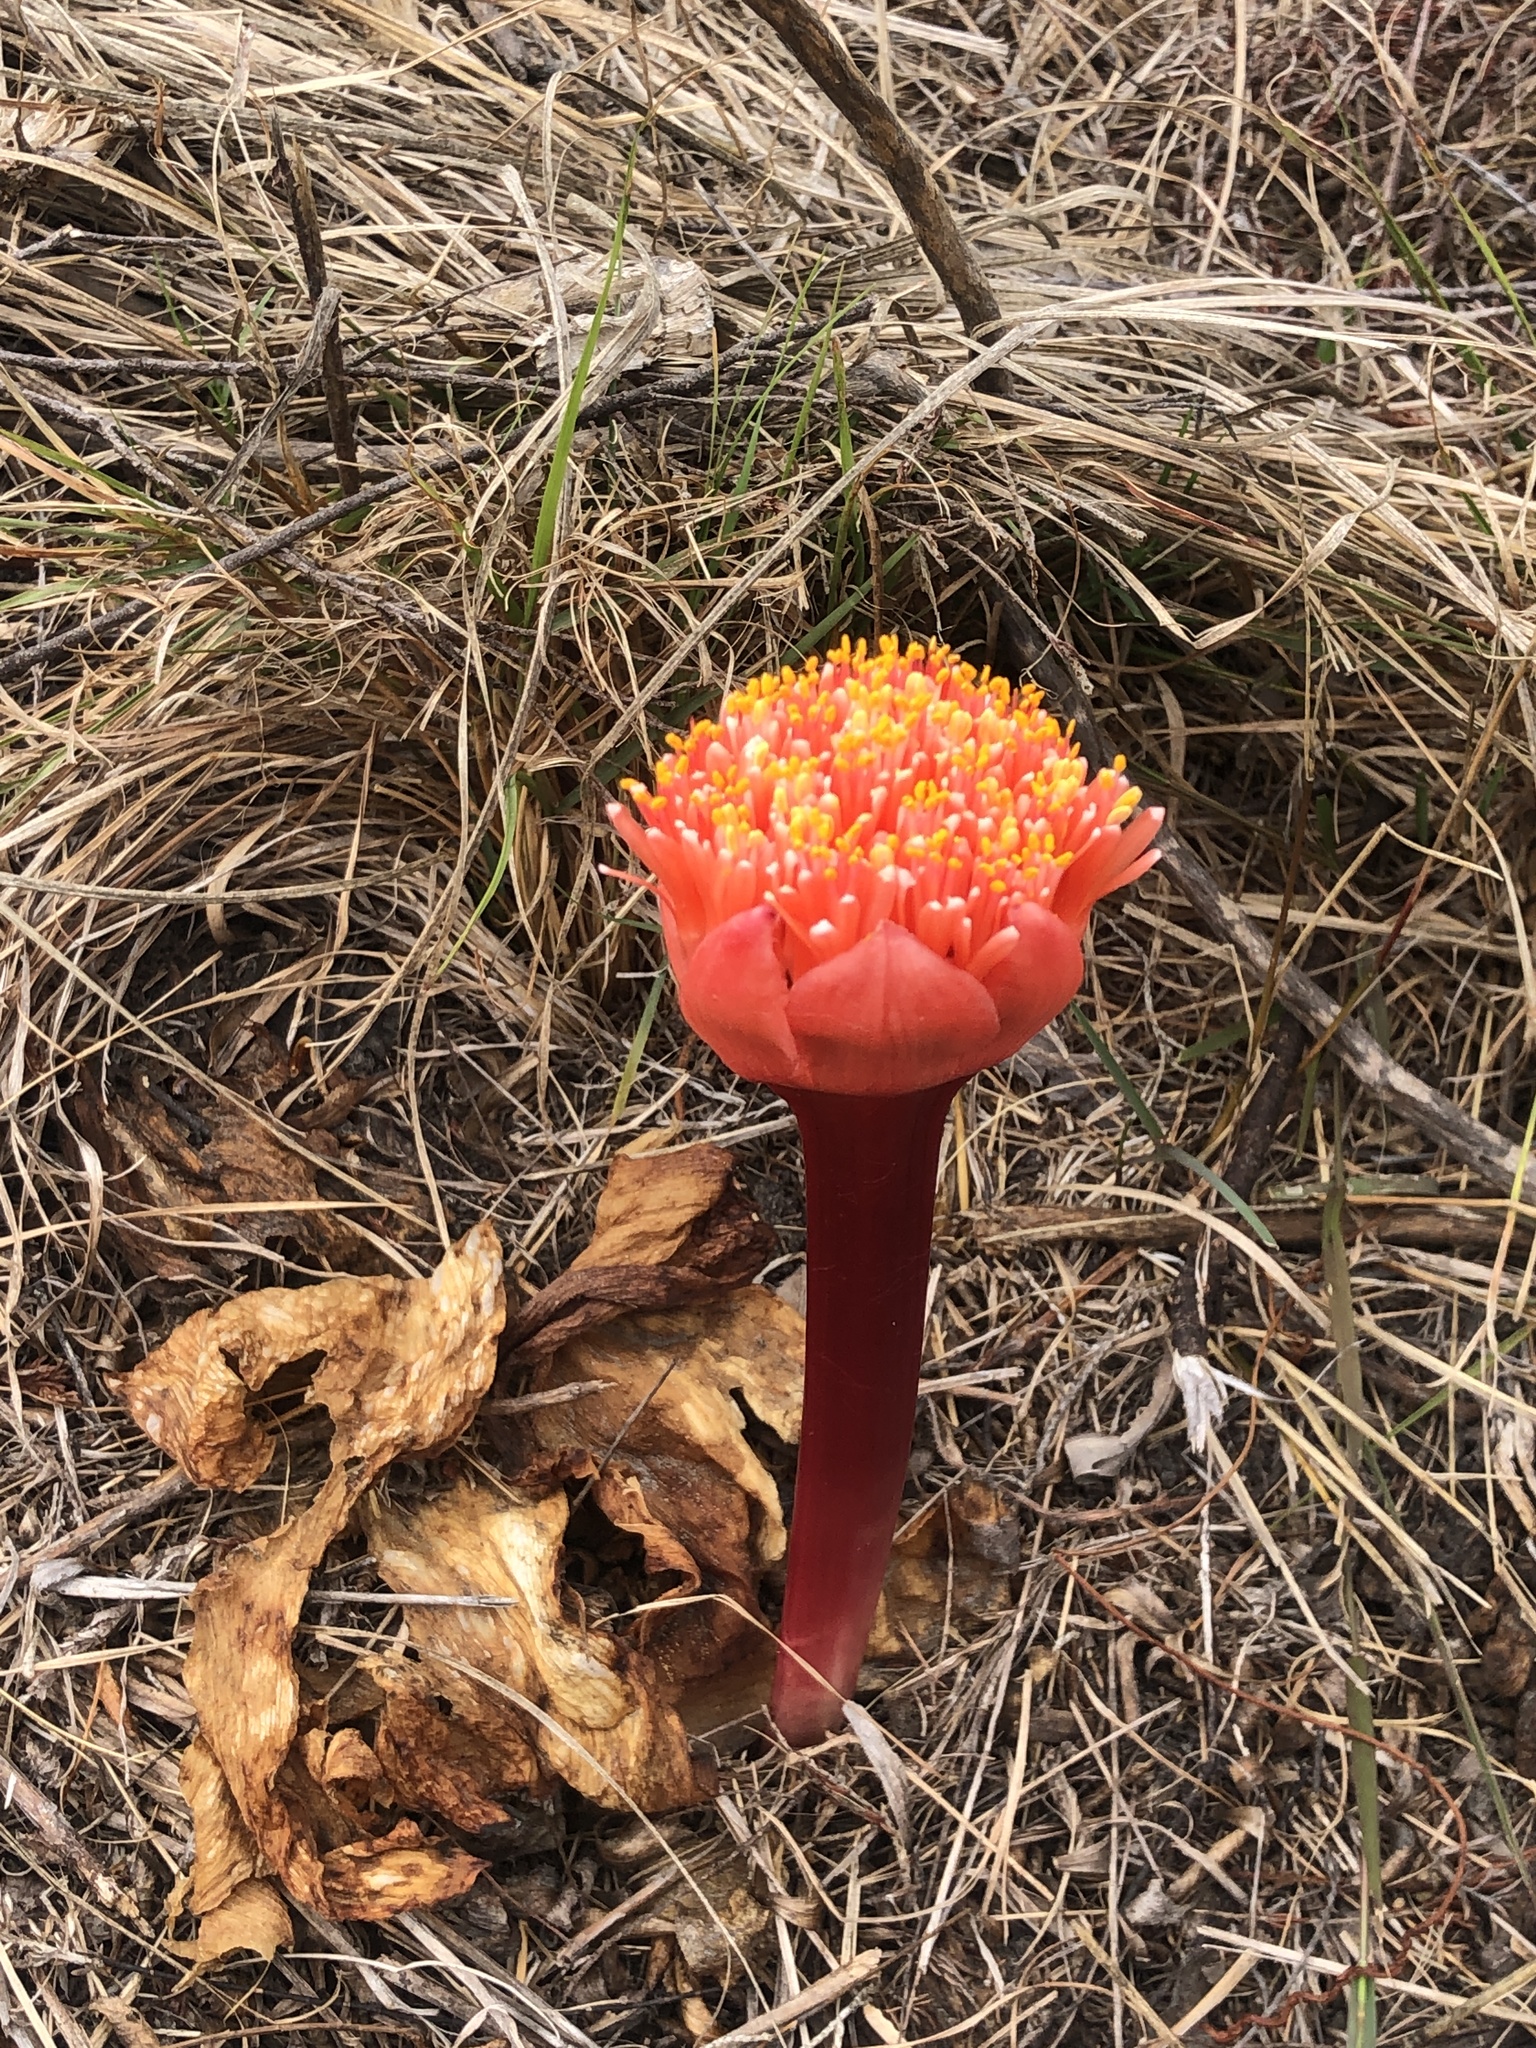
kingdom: Plantae
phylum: Tracheophyta
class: Liliopsida
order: Asparagales
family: Amaryllidaceae
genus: Haemanthus
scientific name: Haemanthus sanguineus
